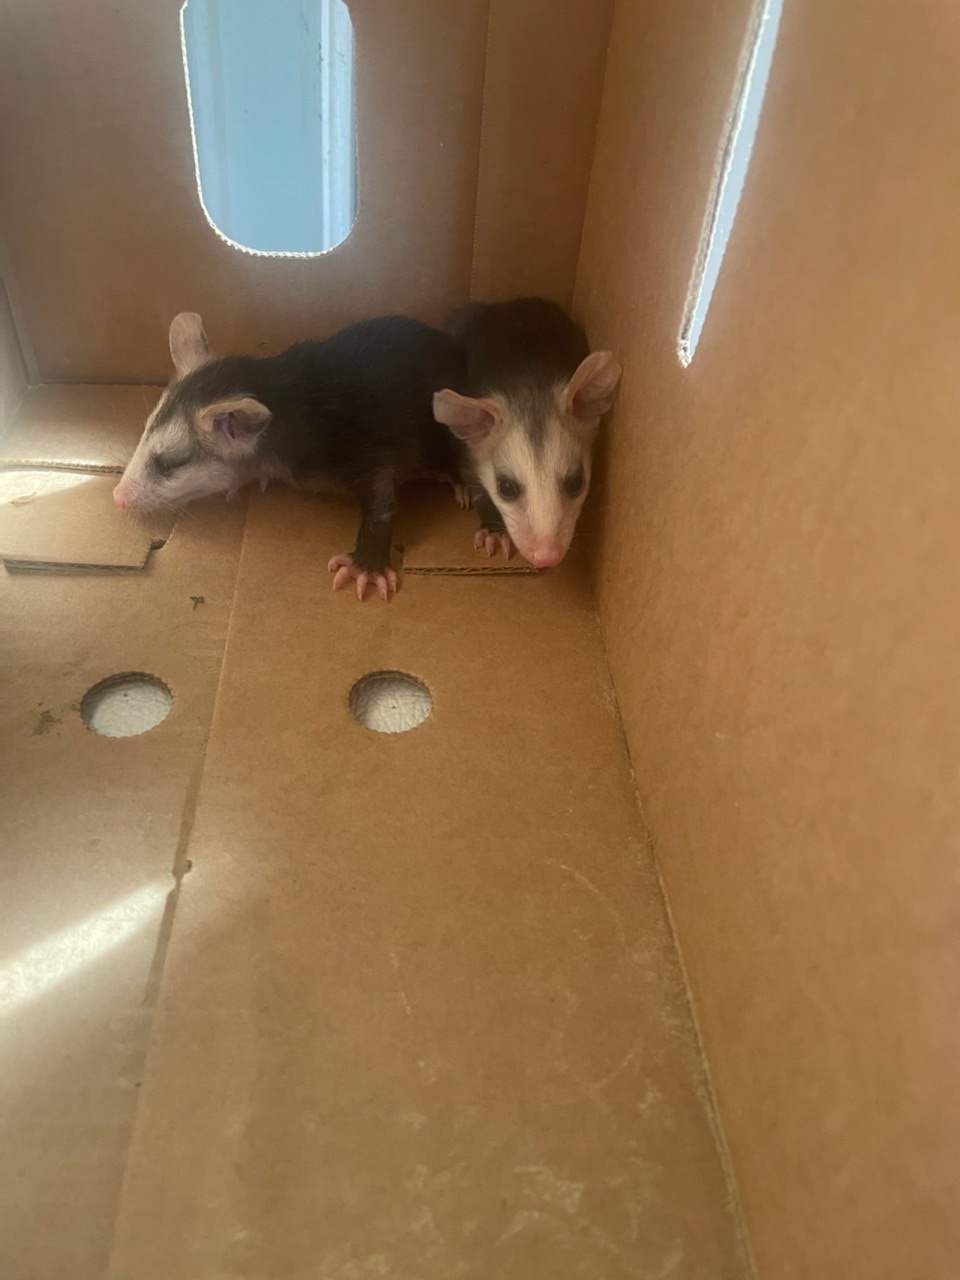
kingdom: Animalia
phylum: Chordata
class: Mammalia
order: Didelphimorphia
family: Didelphidae
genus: Didelphis
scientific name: Didelphis virginiana
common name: Virginia opossum
